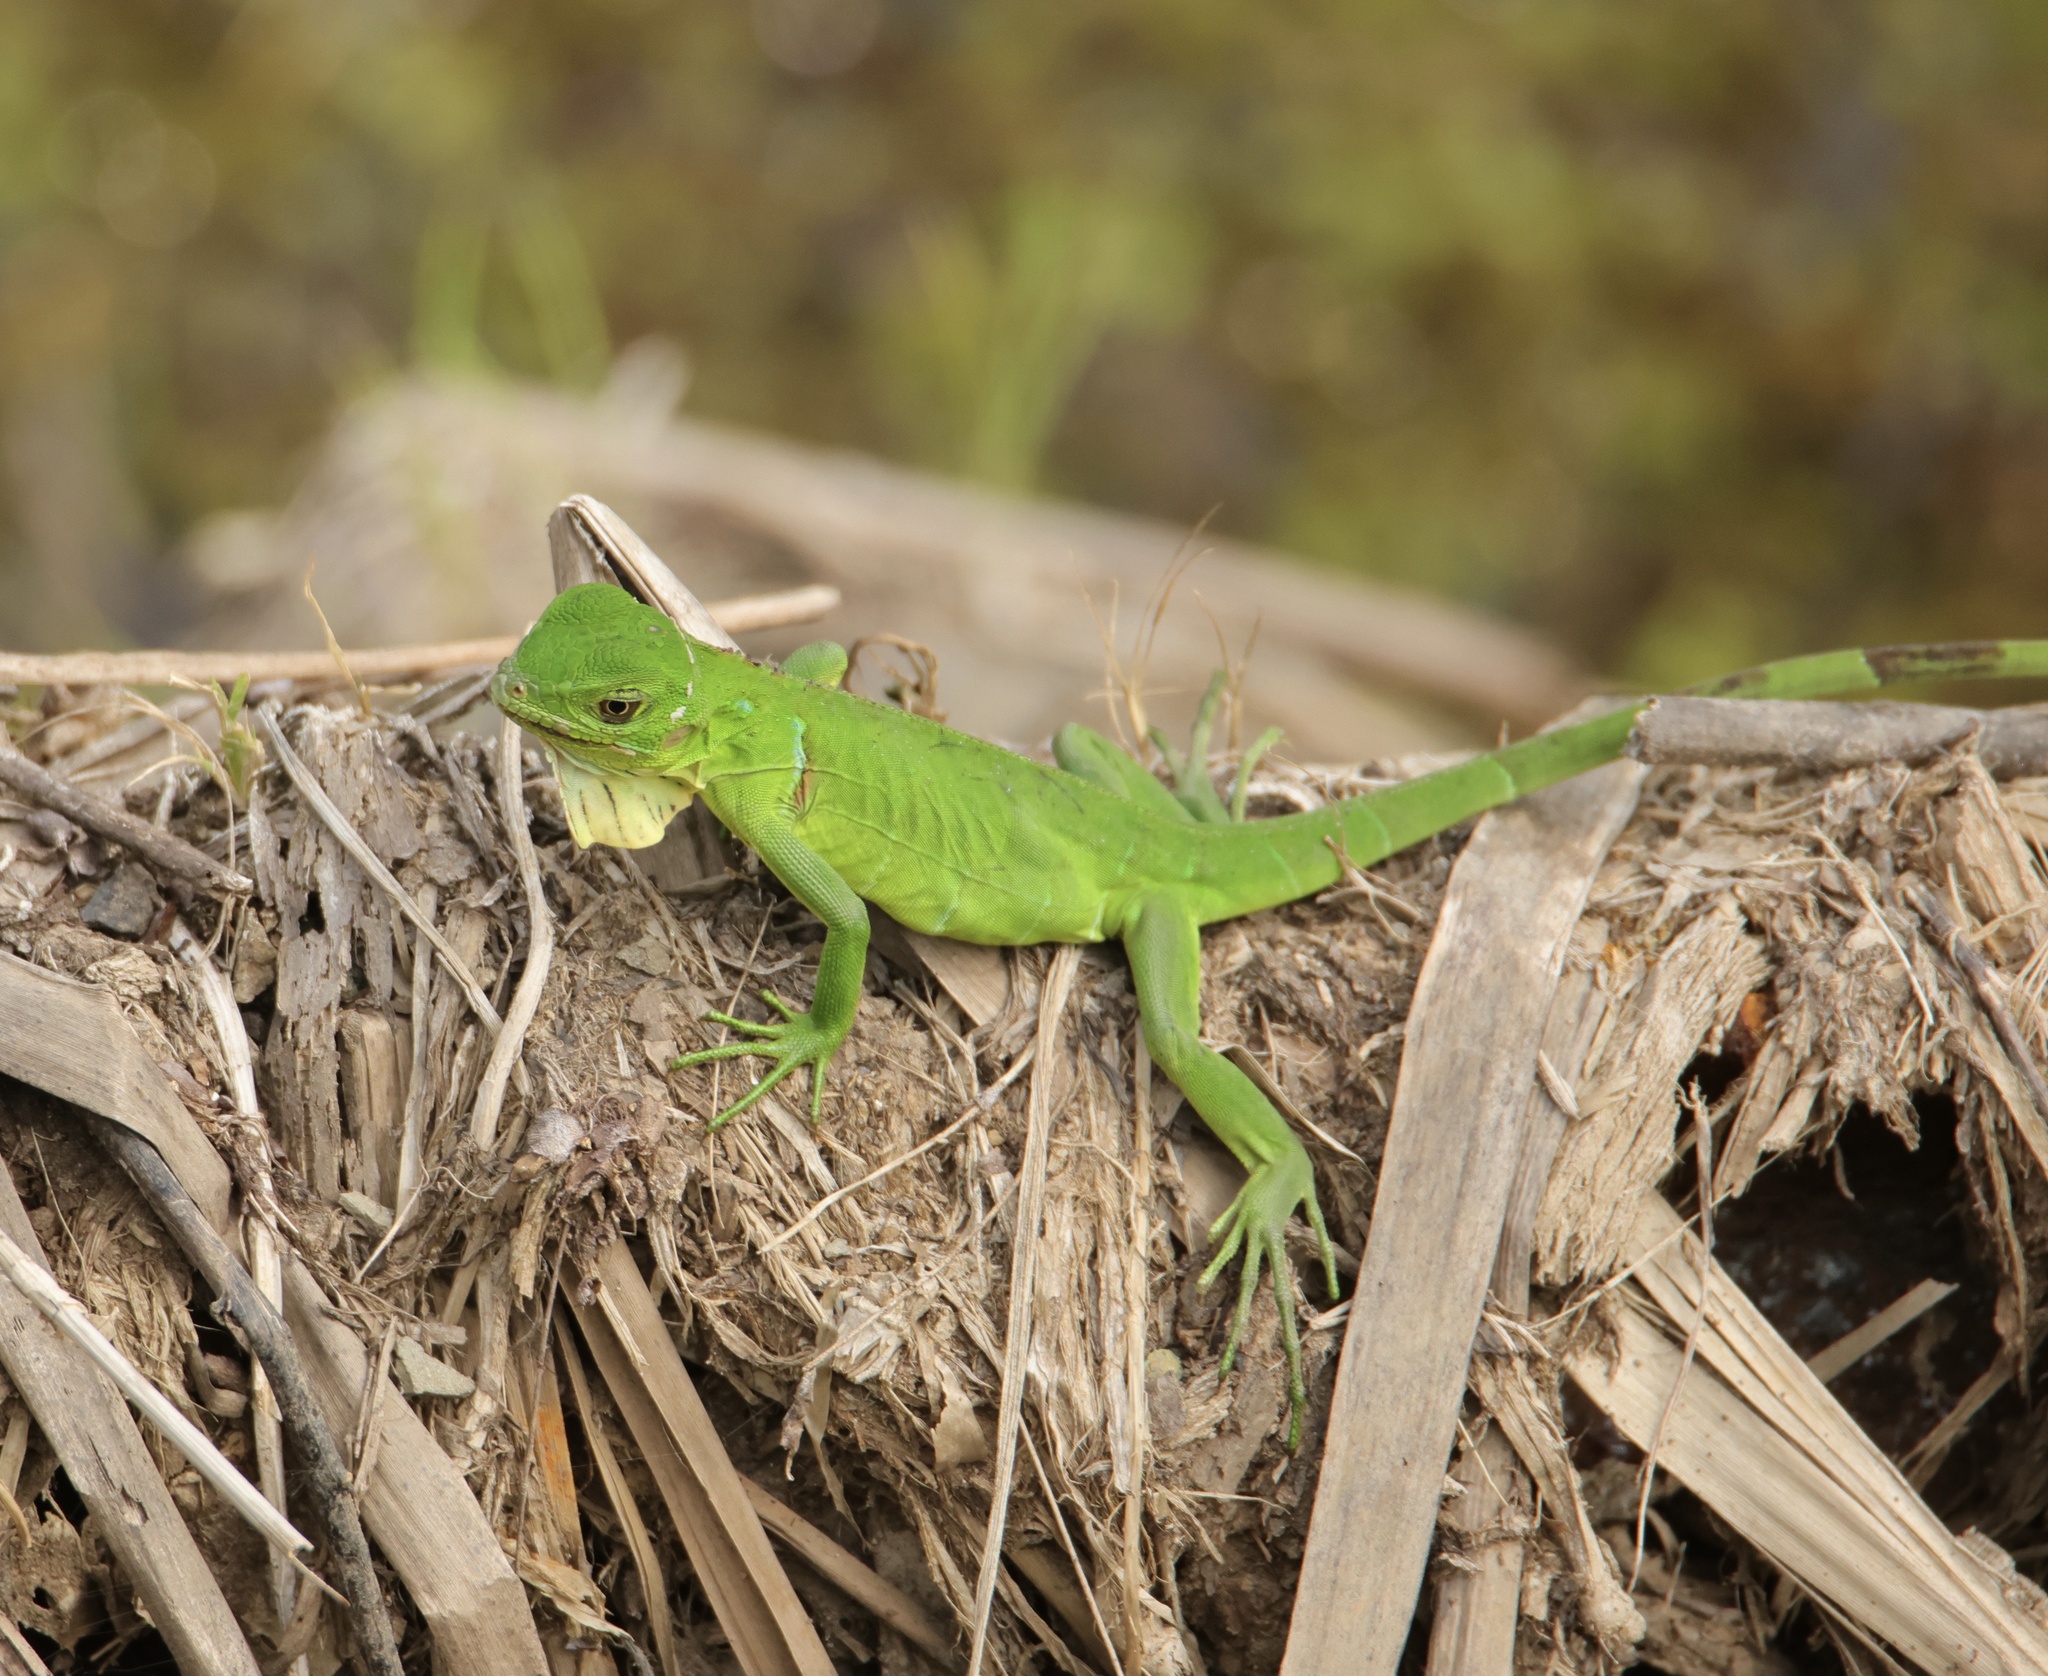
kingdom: Animalia
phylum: Chordata
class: Squamata
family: Iguanidae
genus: Iguana
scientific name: Iguana iguana
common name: Green iguana
